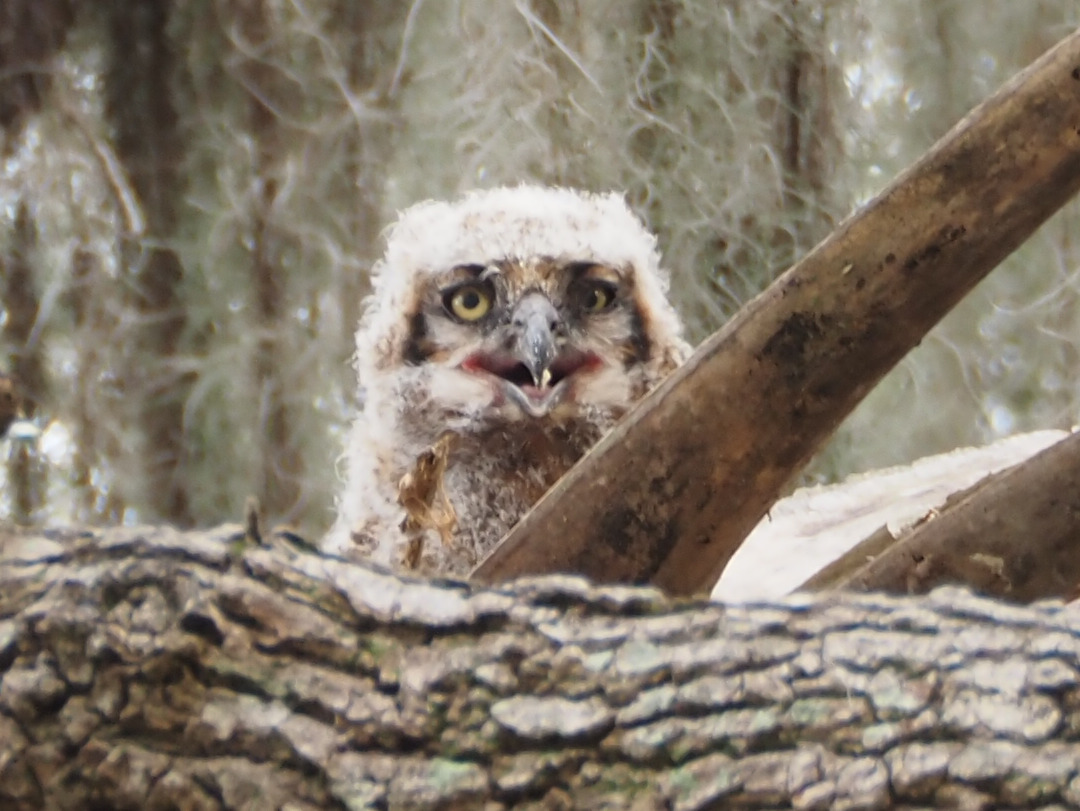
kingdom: Animalia
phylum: Chordata
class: Aves
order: Strigiformes
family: Strigidae
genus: Bubo
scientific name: Bubo virginianus
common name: Great horned owl
